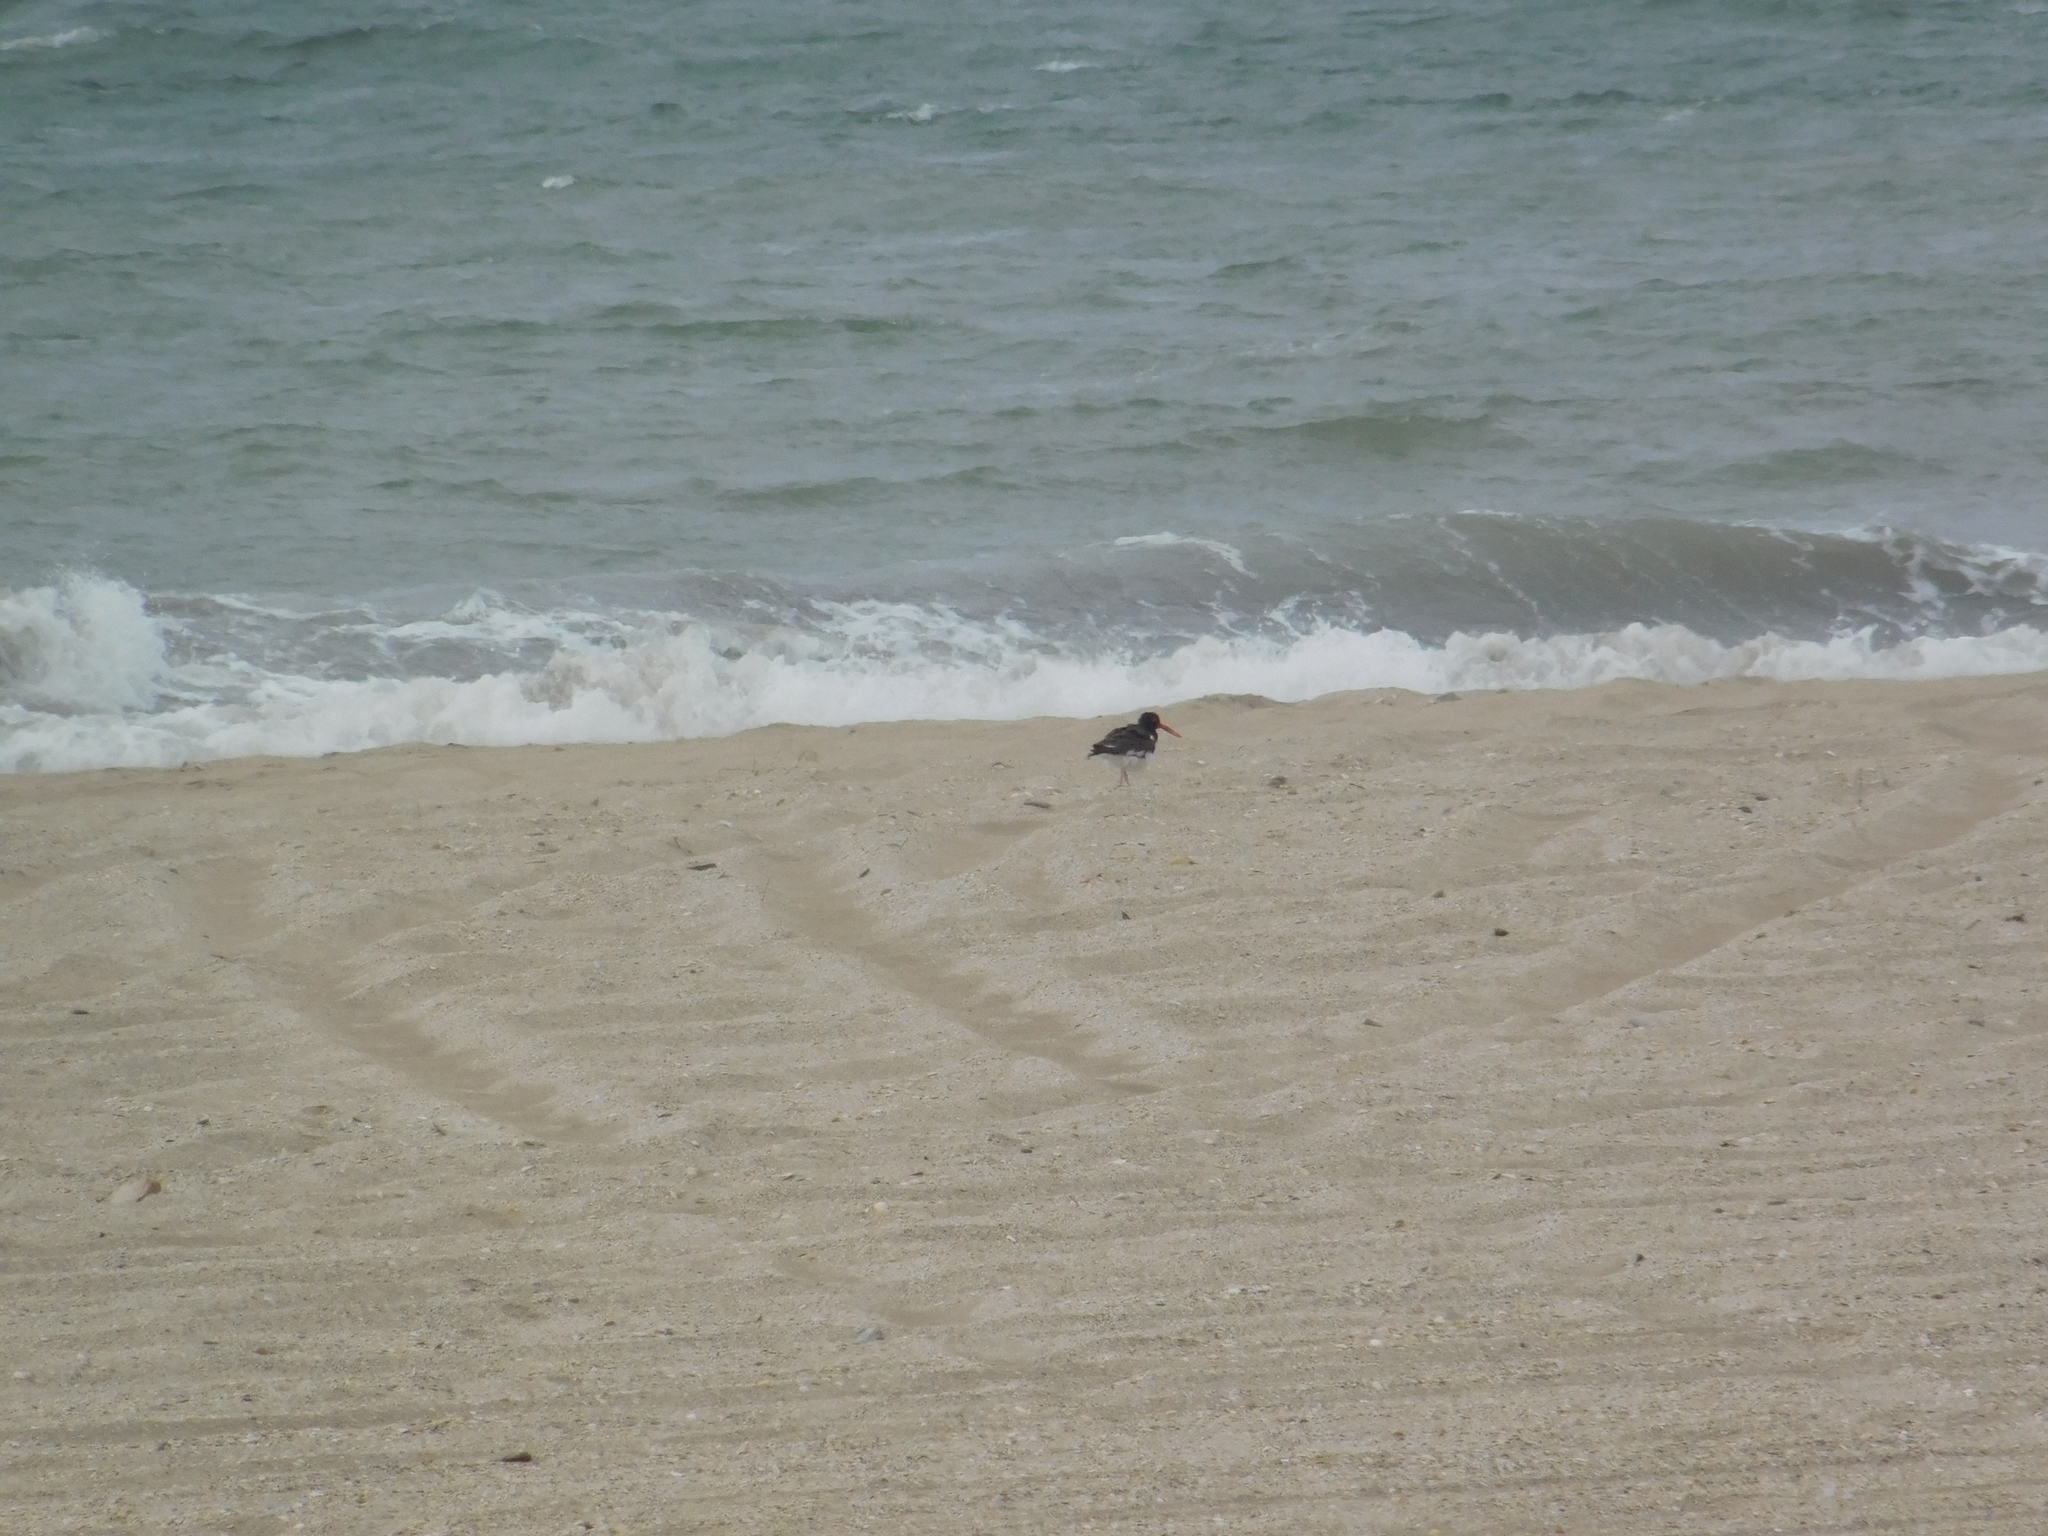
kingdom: Animalia
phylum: Chordata
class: Aves
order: Charadriiformes
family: Haematopodidae
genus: Haematopus
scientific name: Haematopus palliatus
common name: American oystercatcher
